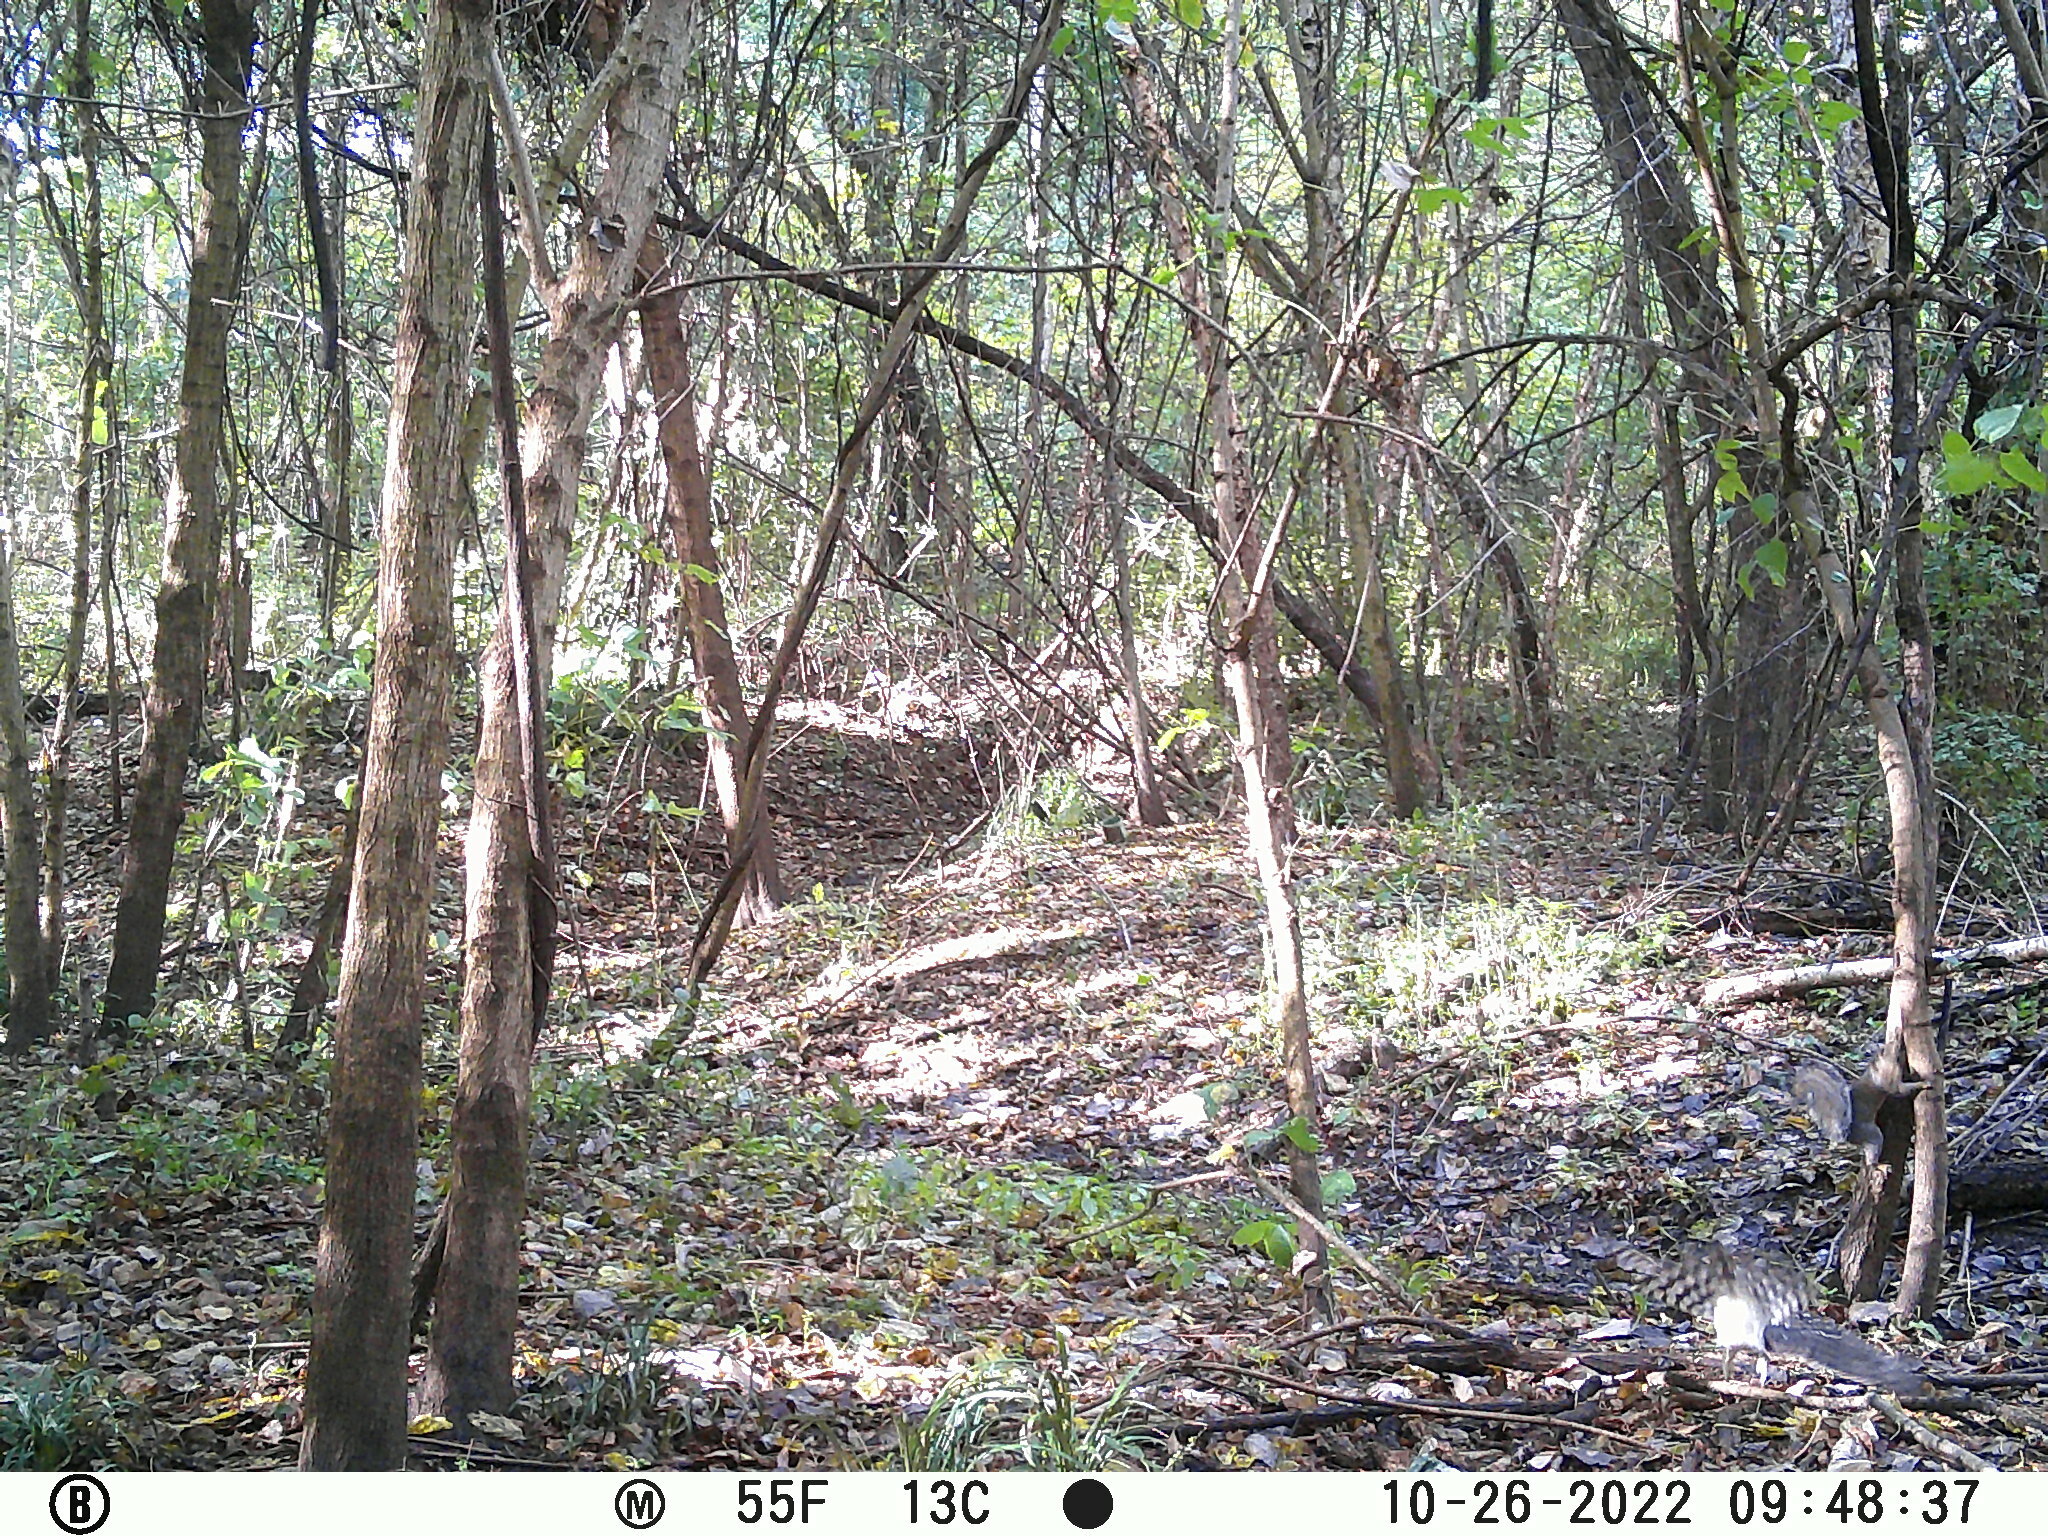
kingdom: Animalia
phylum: Chordata
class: Aves
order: Accipitriformes
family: Accipitridae
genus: Accipiter
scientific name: Accipiter cooperii
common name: Cooper's hawk
